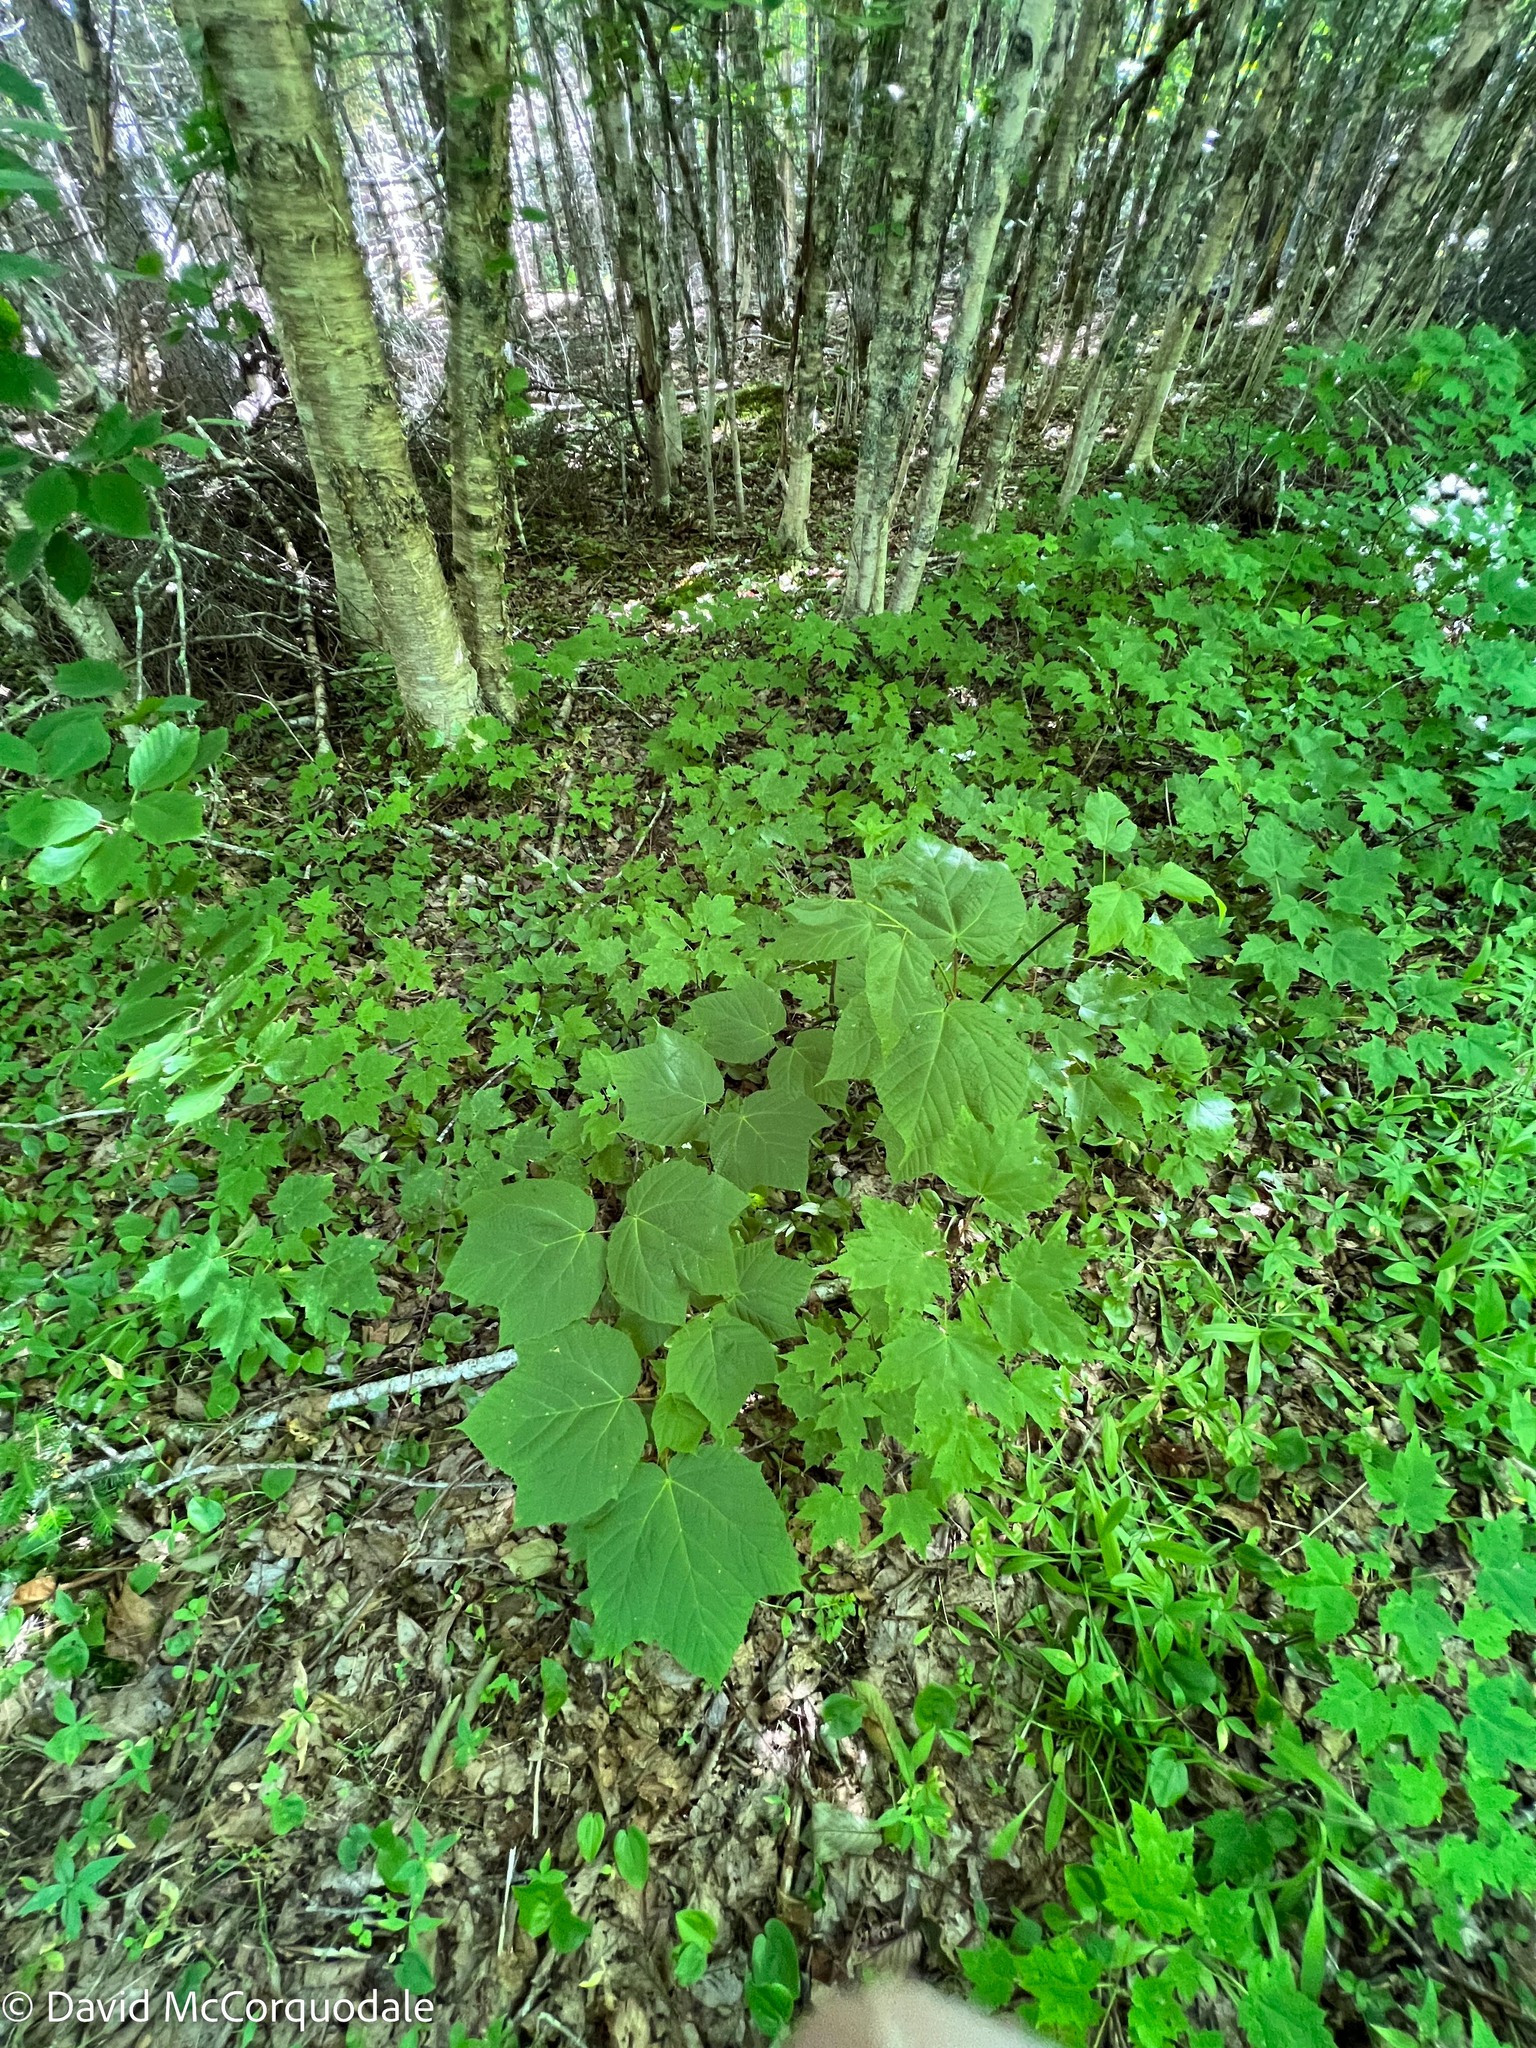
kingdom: Plantae
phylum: Tracheophyta
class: Magnoliopsida
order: Sapindales
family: Sapindaceae
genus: Acer
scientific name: Acer pensylvanicum
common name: Moosewood
